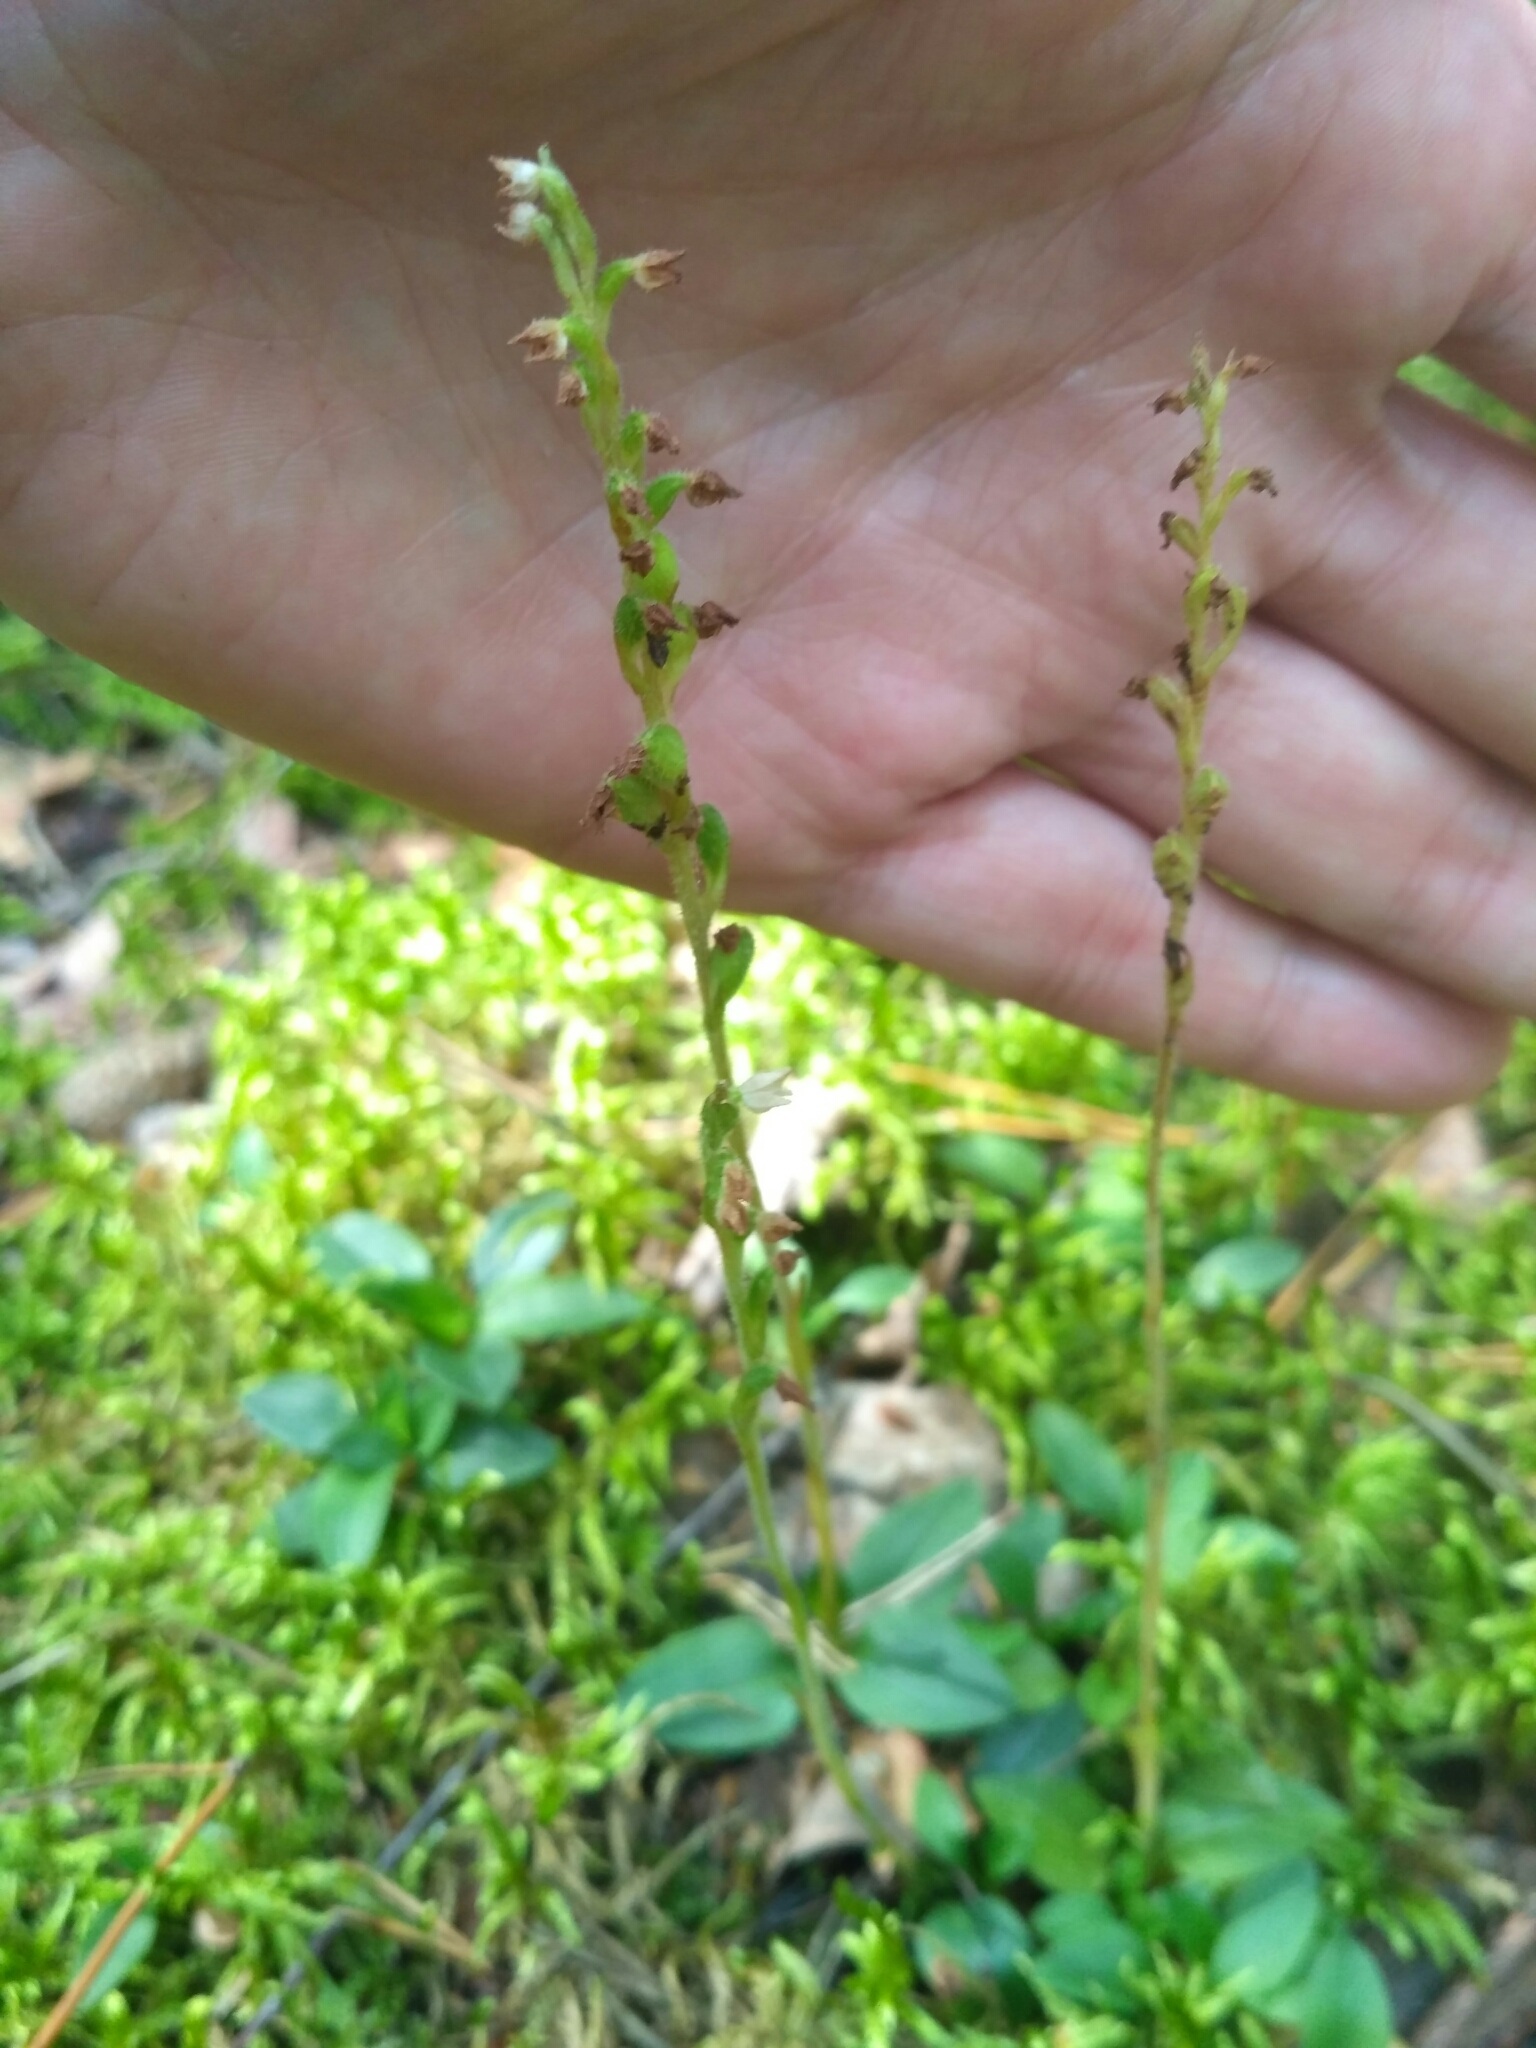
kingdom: Plantae
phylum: Tracheophyta
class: Liliopsida
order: Asparagales
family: Orchidaceae
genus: Goodyera
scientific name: Goodyera repens
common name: Creeping lady's-tresses
